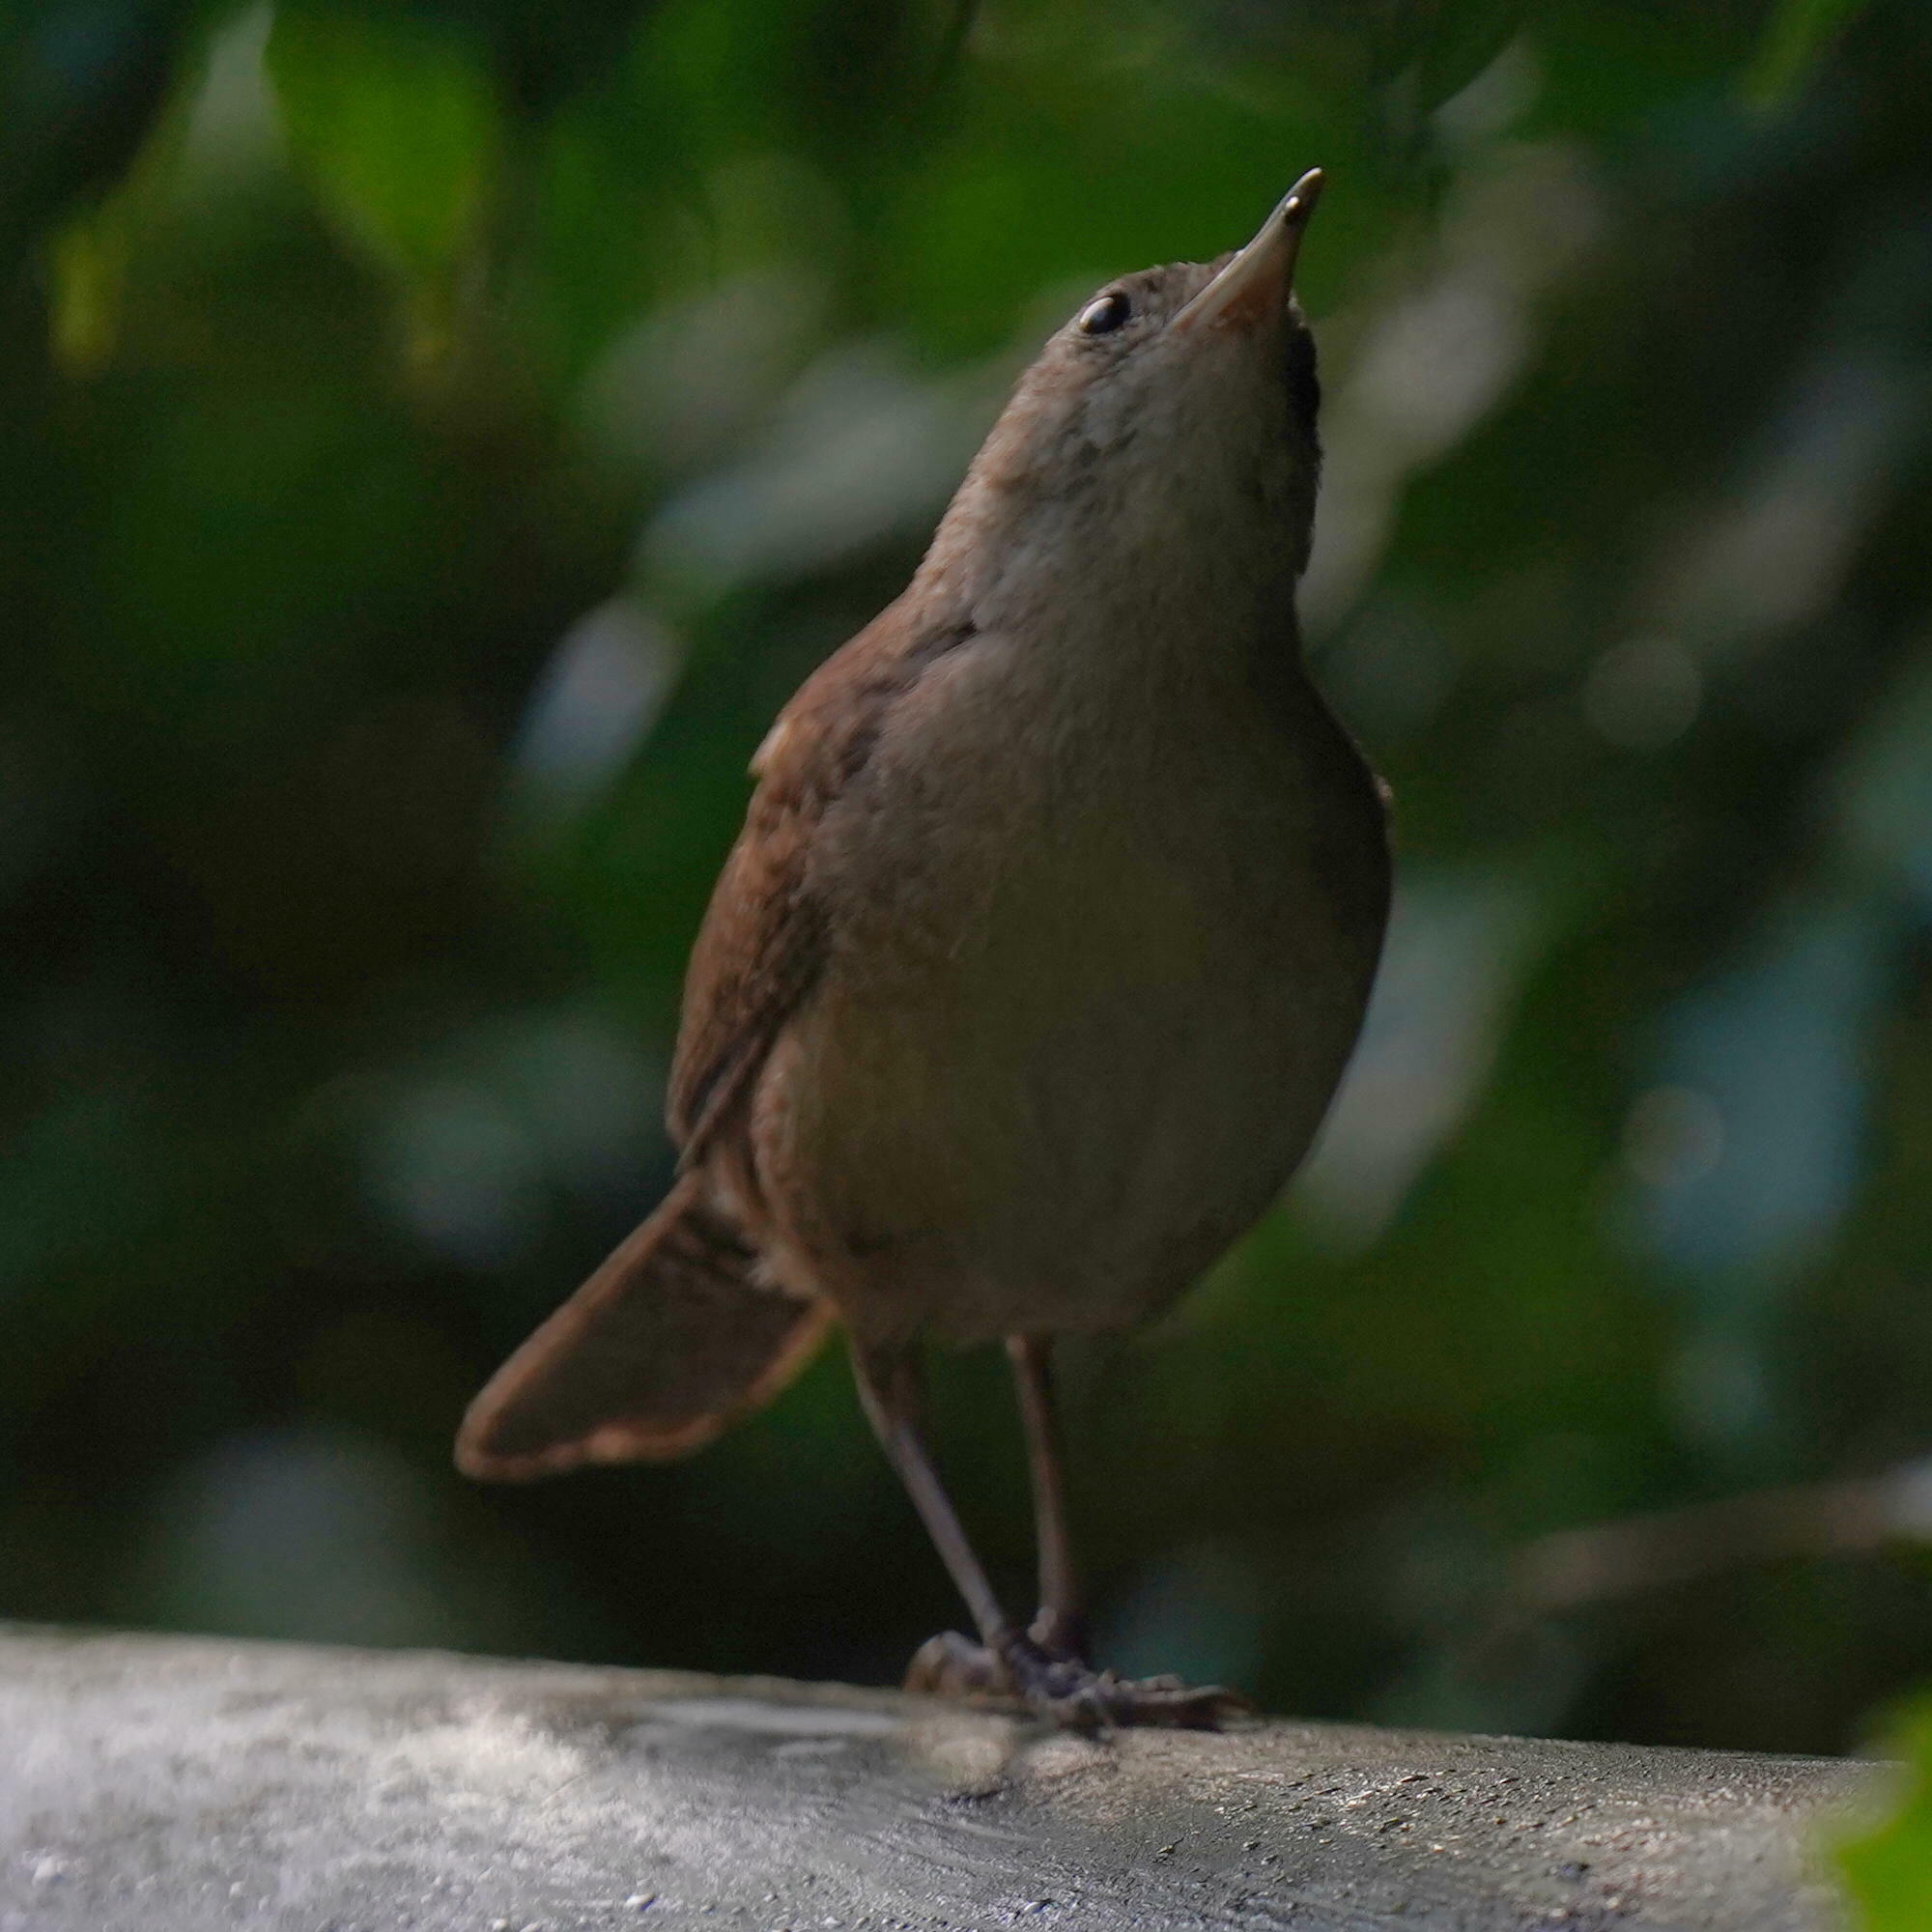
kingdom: Animalia
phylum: Chordata
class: Aves
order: Passeriformes
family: Troglodytidae
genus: Troglodytes
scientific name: Troglodytes aedon
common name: House wren
